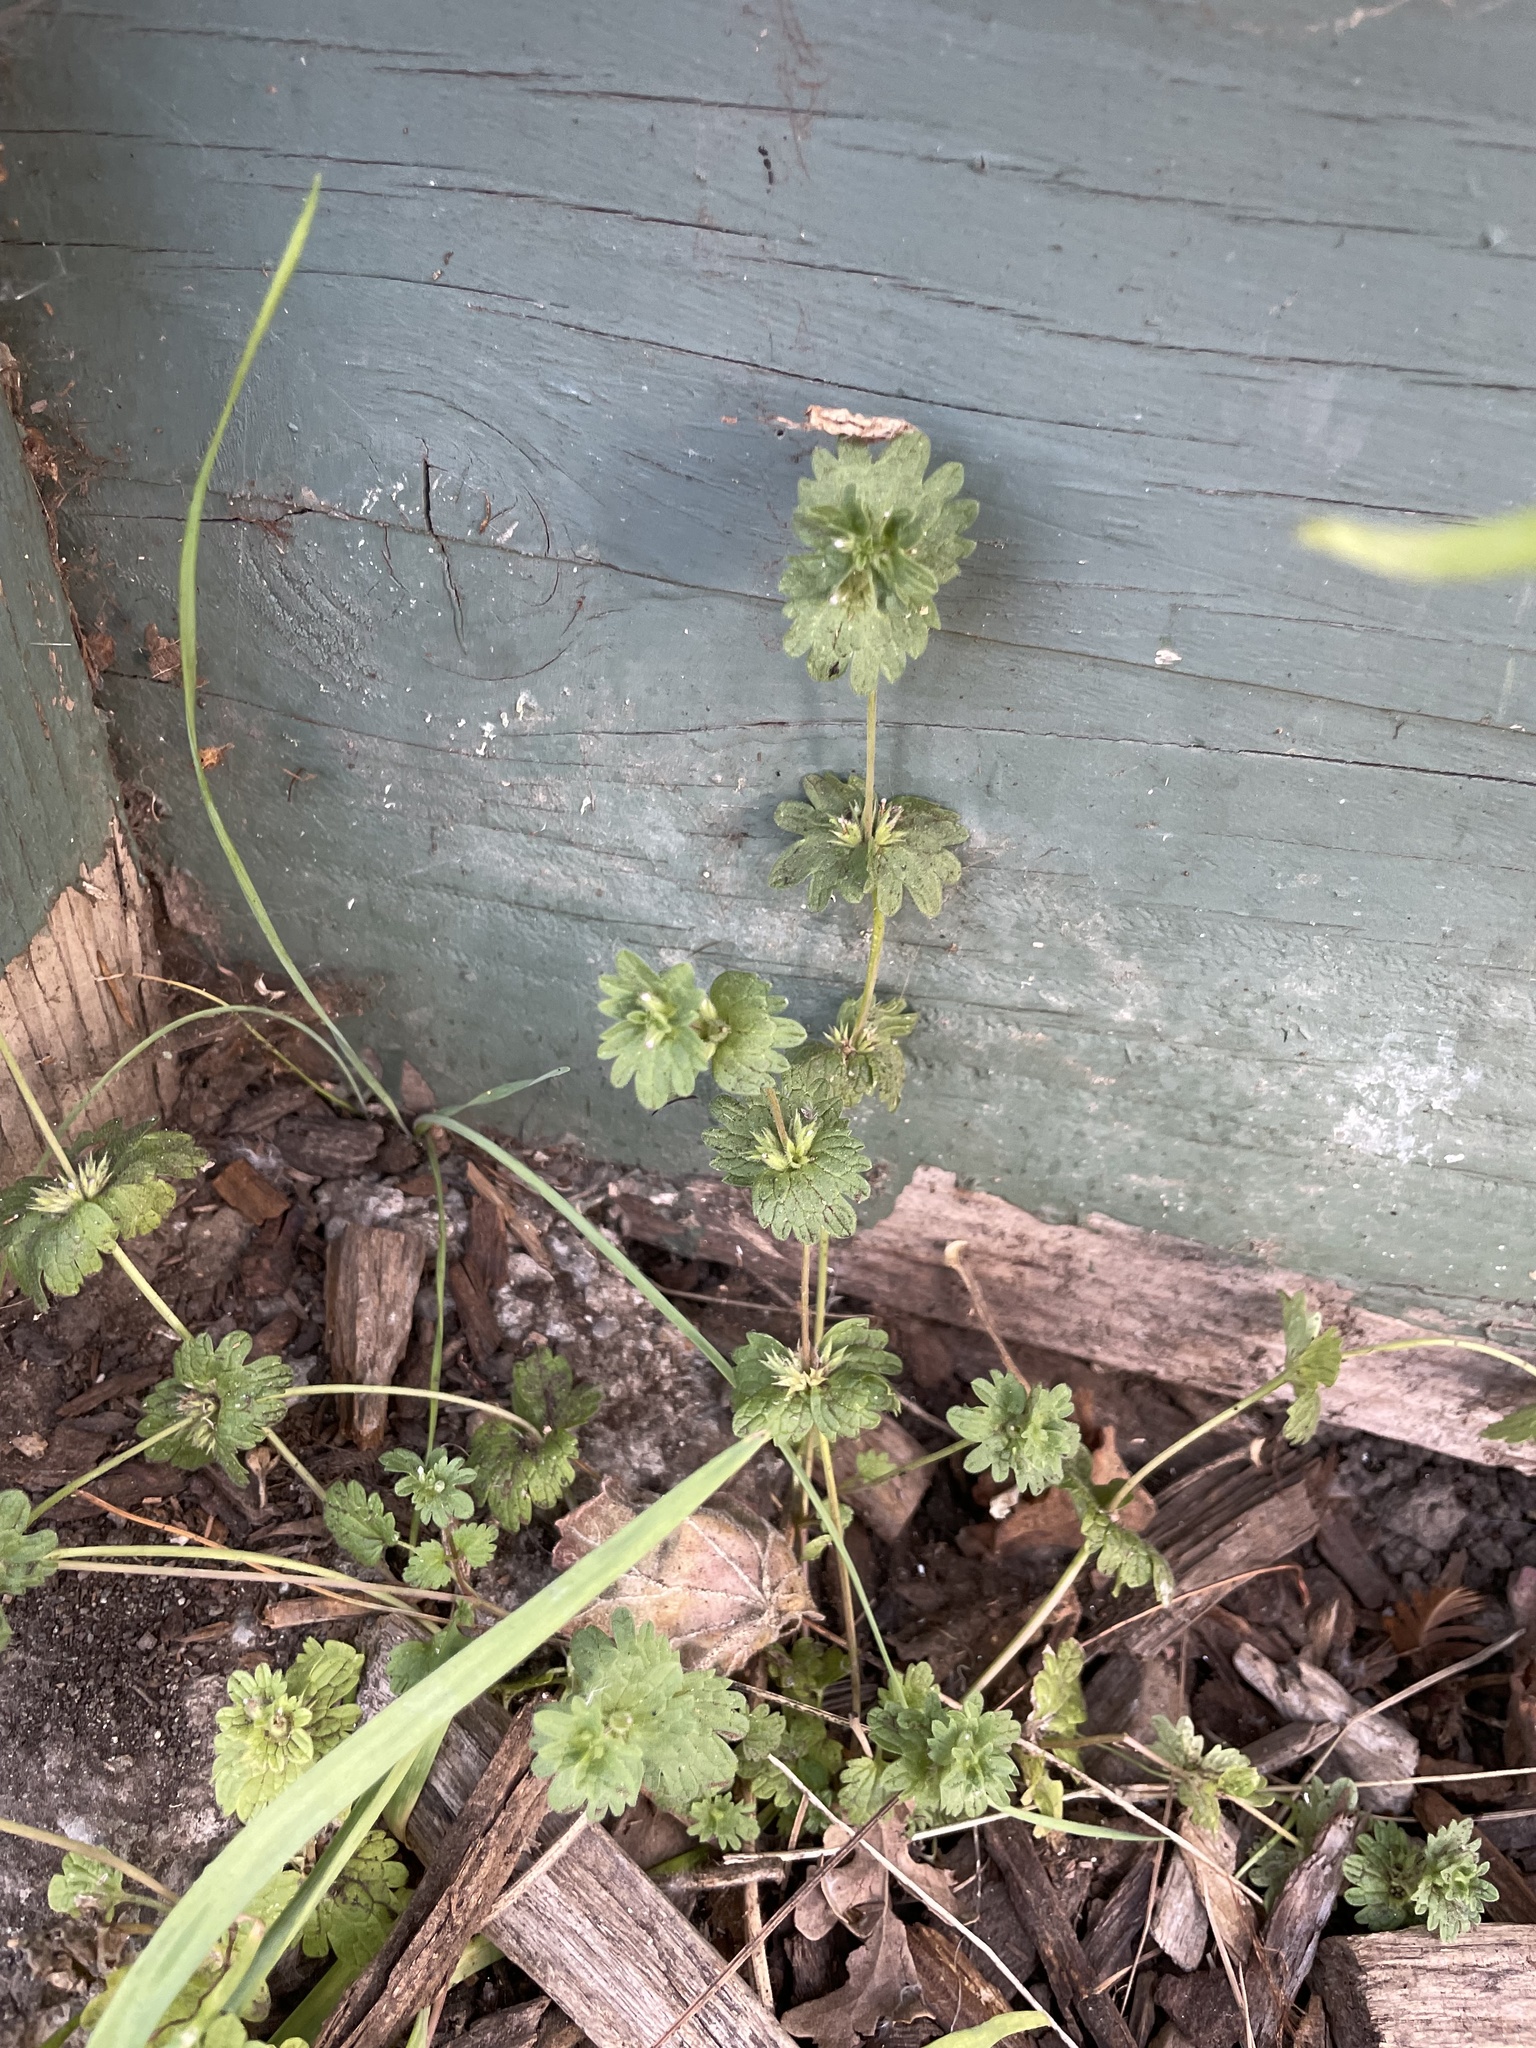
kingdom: Plantae
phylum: Tracheophyta
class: Magnoliopsida
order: Lamiales
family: Lamiaceae
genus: Lamium
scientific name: Lamium amplexicaule
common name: Henbit dead-nettle
